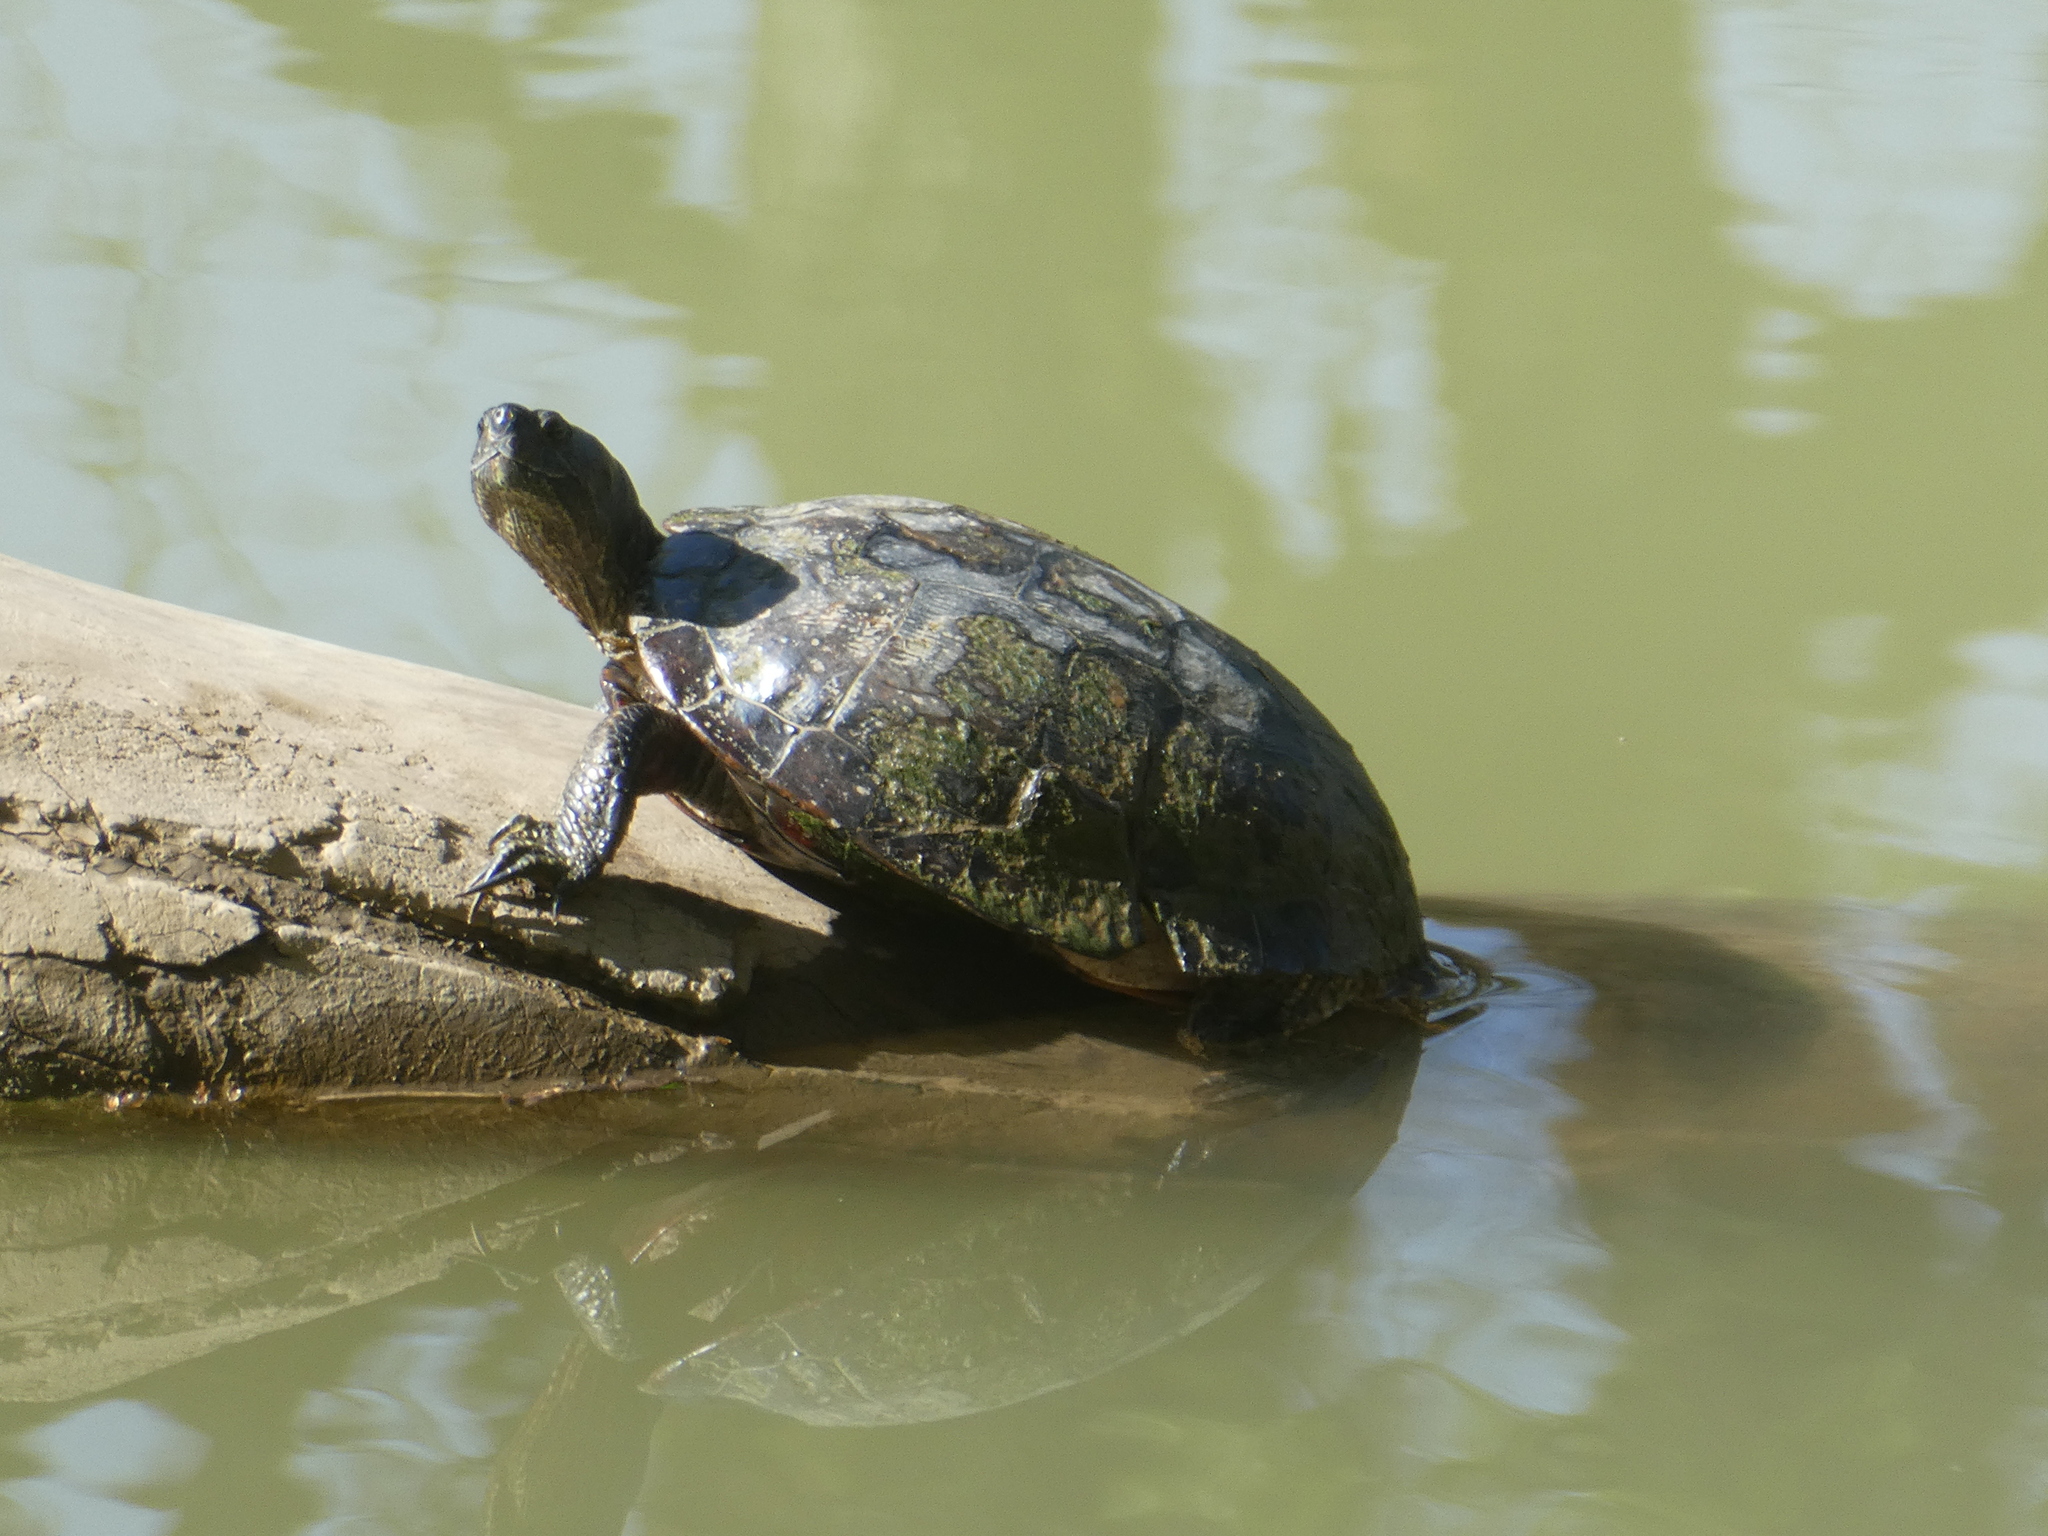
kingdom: Animalia
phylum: Chordata
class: Testudines
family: Emydidae
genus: Trachemys
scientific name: Trachemys scripta
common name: Slider
